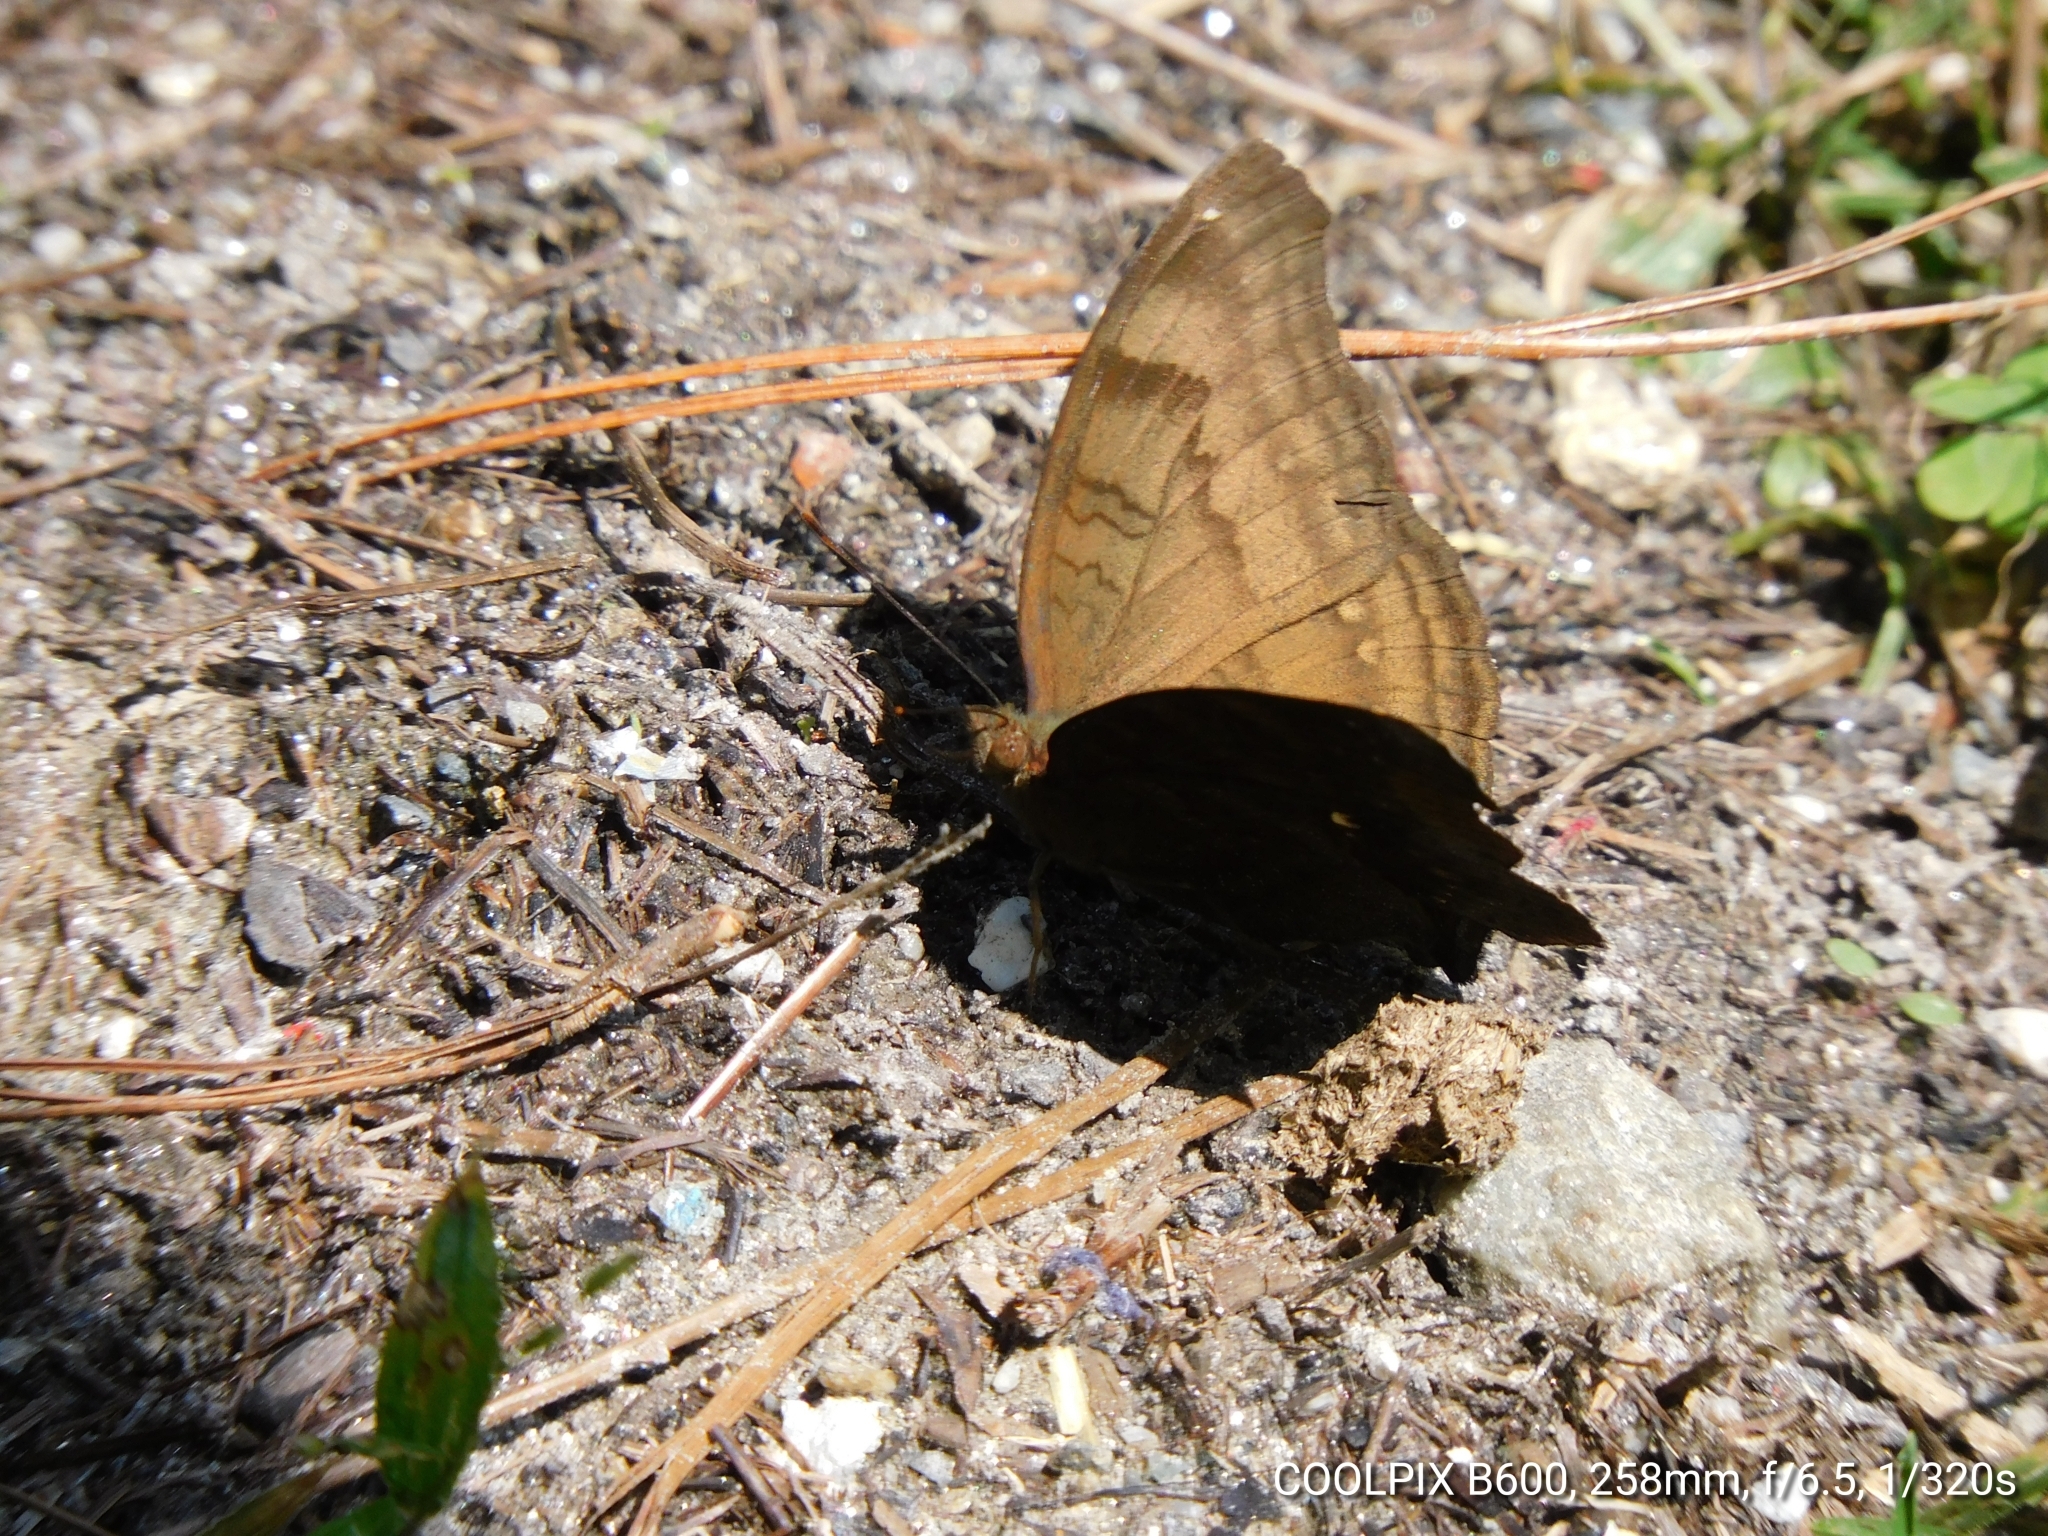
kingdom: Animalia
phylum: Arthropoda
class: Insecta
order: Lepidoptera
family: Nymphalidae
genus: Junonia
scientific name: Junonia iphita
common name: Chocolate pansy
